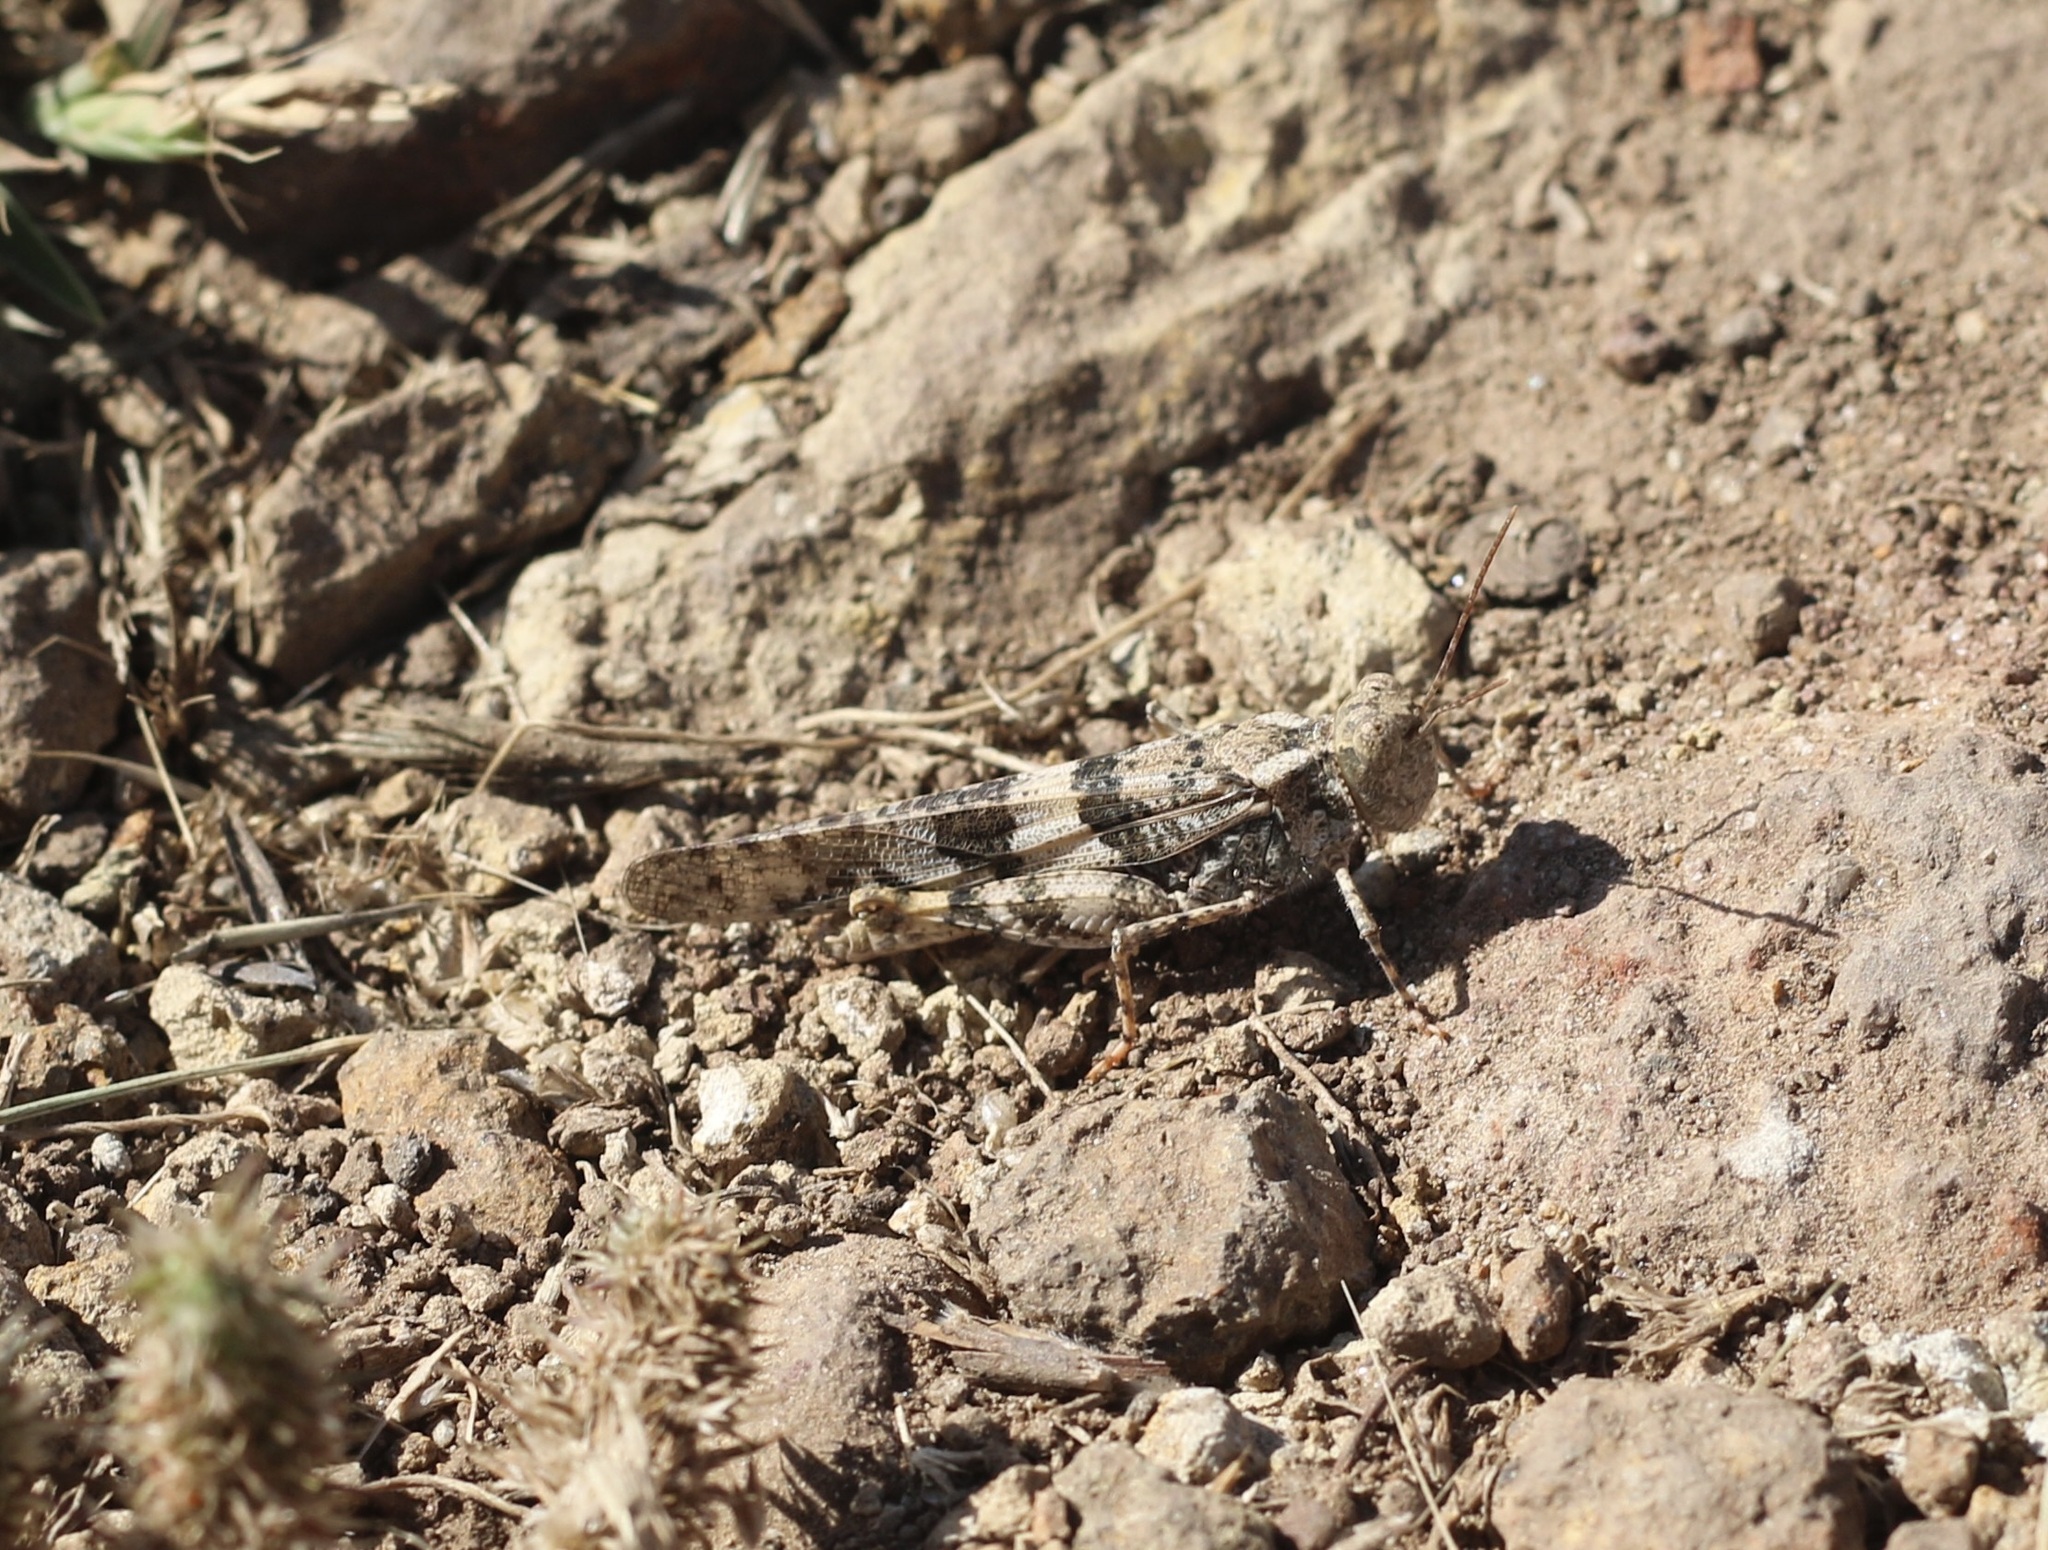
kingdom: Animalia
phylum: Arthropoda
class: Insecta
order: Orthoptera
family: Acrididae
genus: Trimerotropis
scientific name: Trimerotropis pallidipennis
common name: Pallid-winged grasshopper
